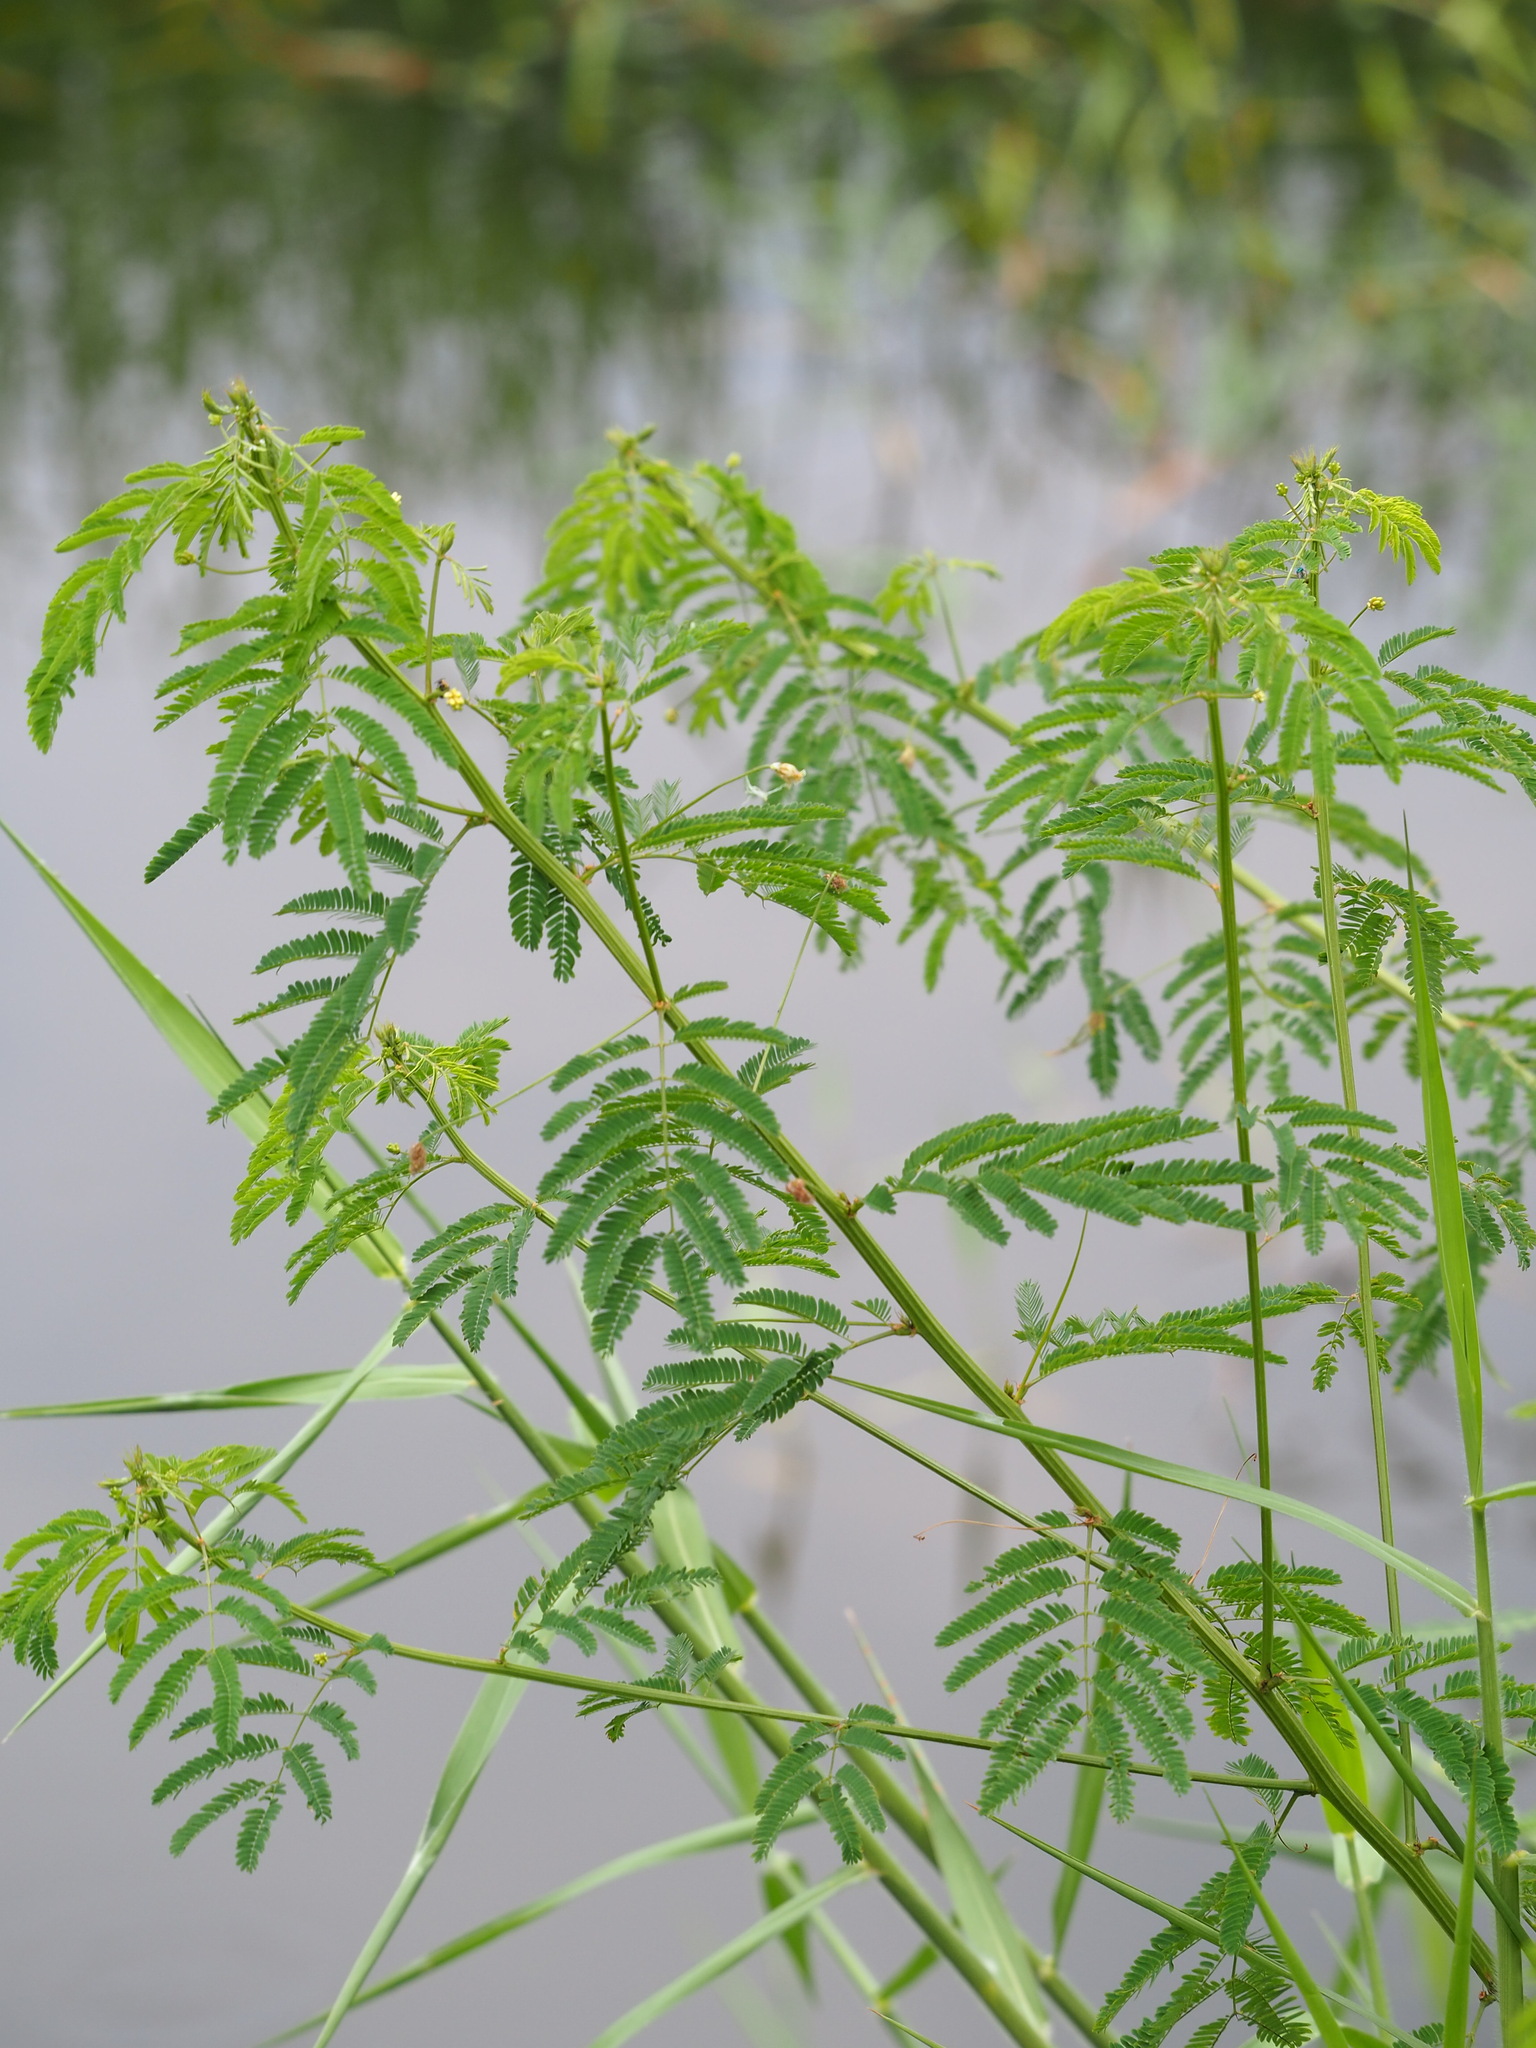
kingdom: Plantae
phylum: Tracheophyta
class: Magnoliopsida
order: Fabales
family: Fabaceae
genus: Desmanthus
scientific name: Desmanthus virgatus
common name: Wild tantan
